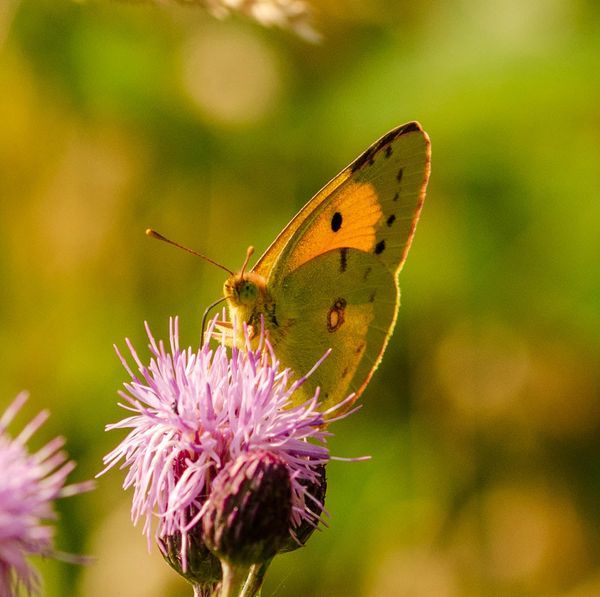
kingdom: Animalia
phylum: Arthropoda
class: Insecta
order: Lepidoptera
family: Pieridae
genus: Colias
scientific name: Colias croceus
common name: Clouded yellow
